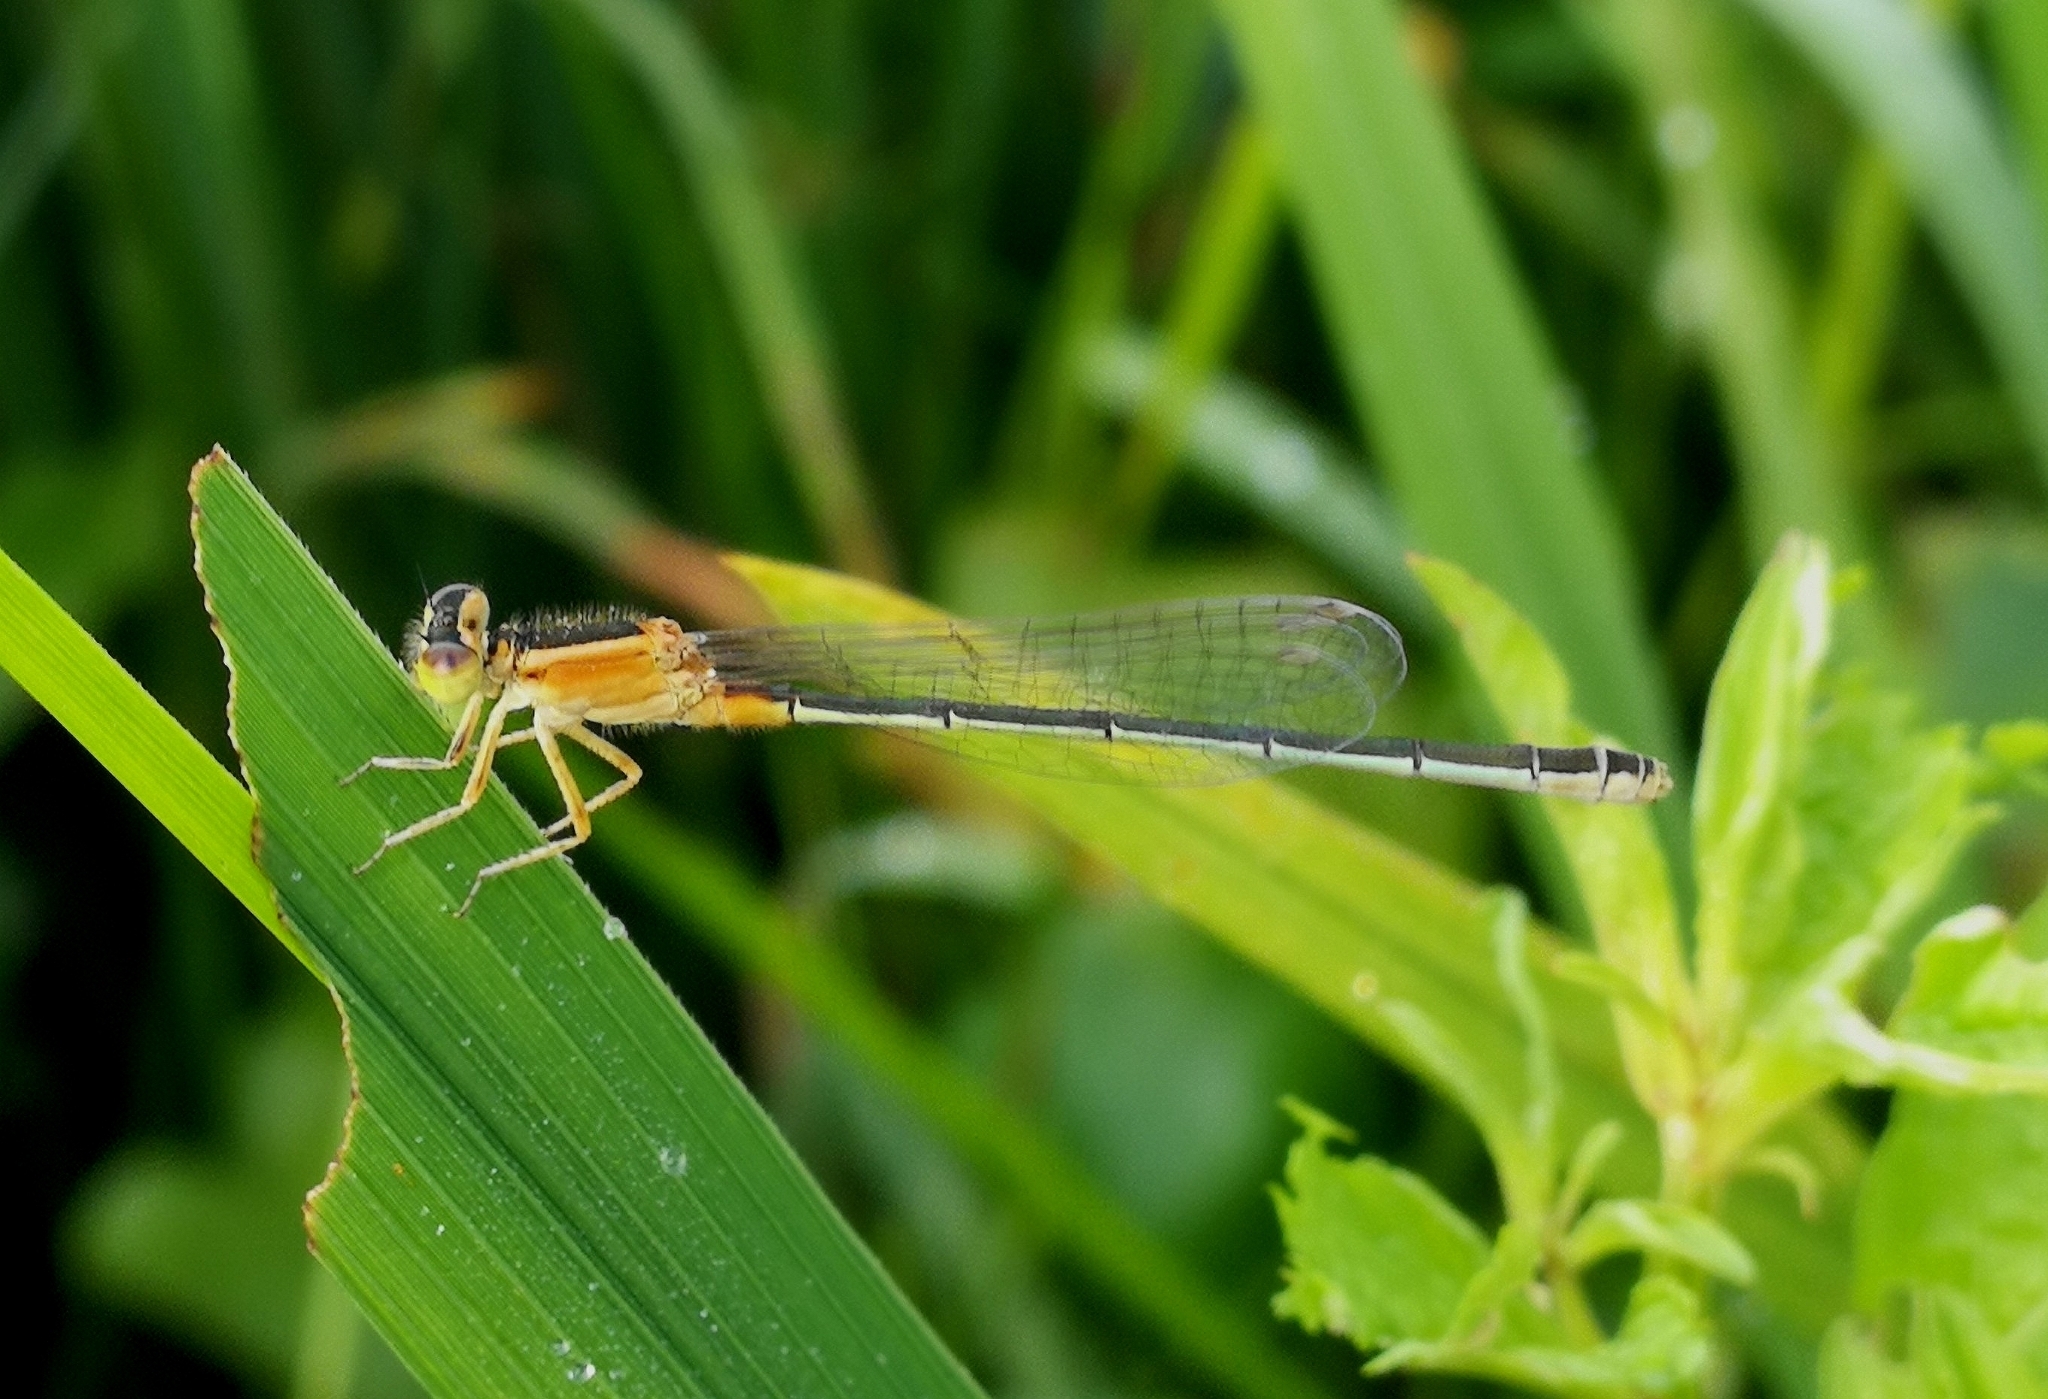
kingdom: Animalia
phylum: Arthropoda
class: Insecta
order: Odonata
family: Coenagrionidae
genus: Ischnura
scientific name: Ischnura senegalensis
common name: Tropical bluetail
